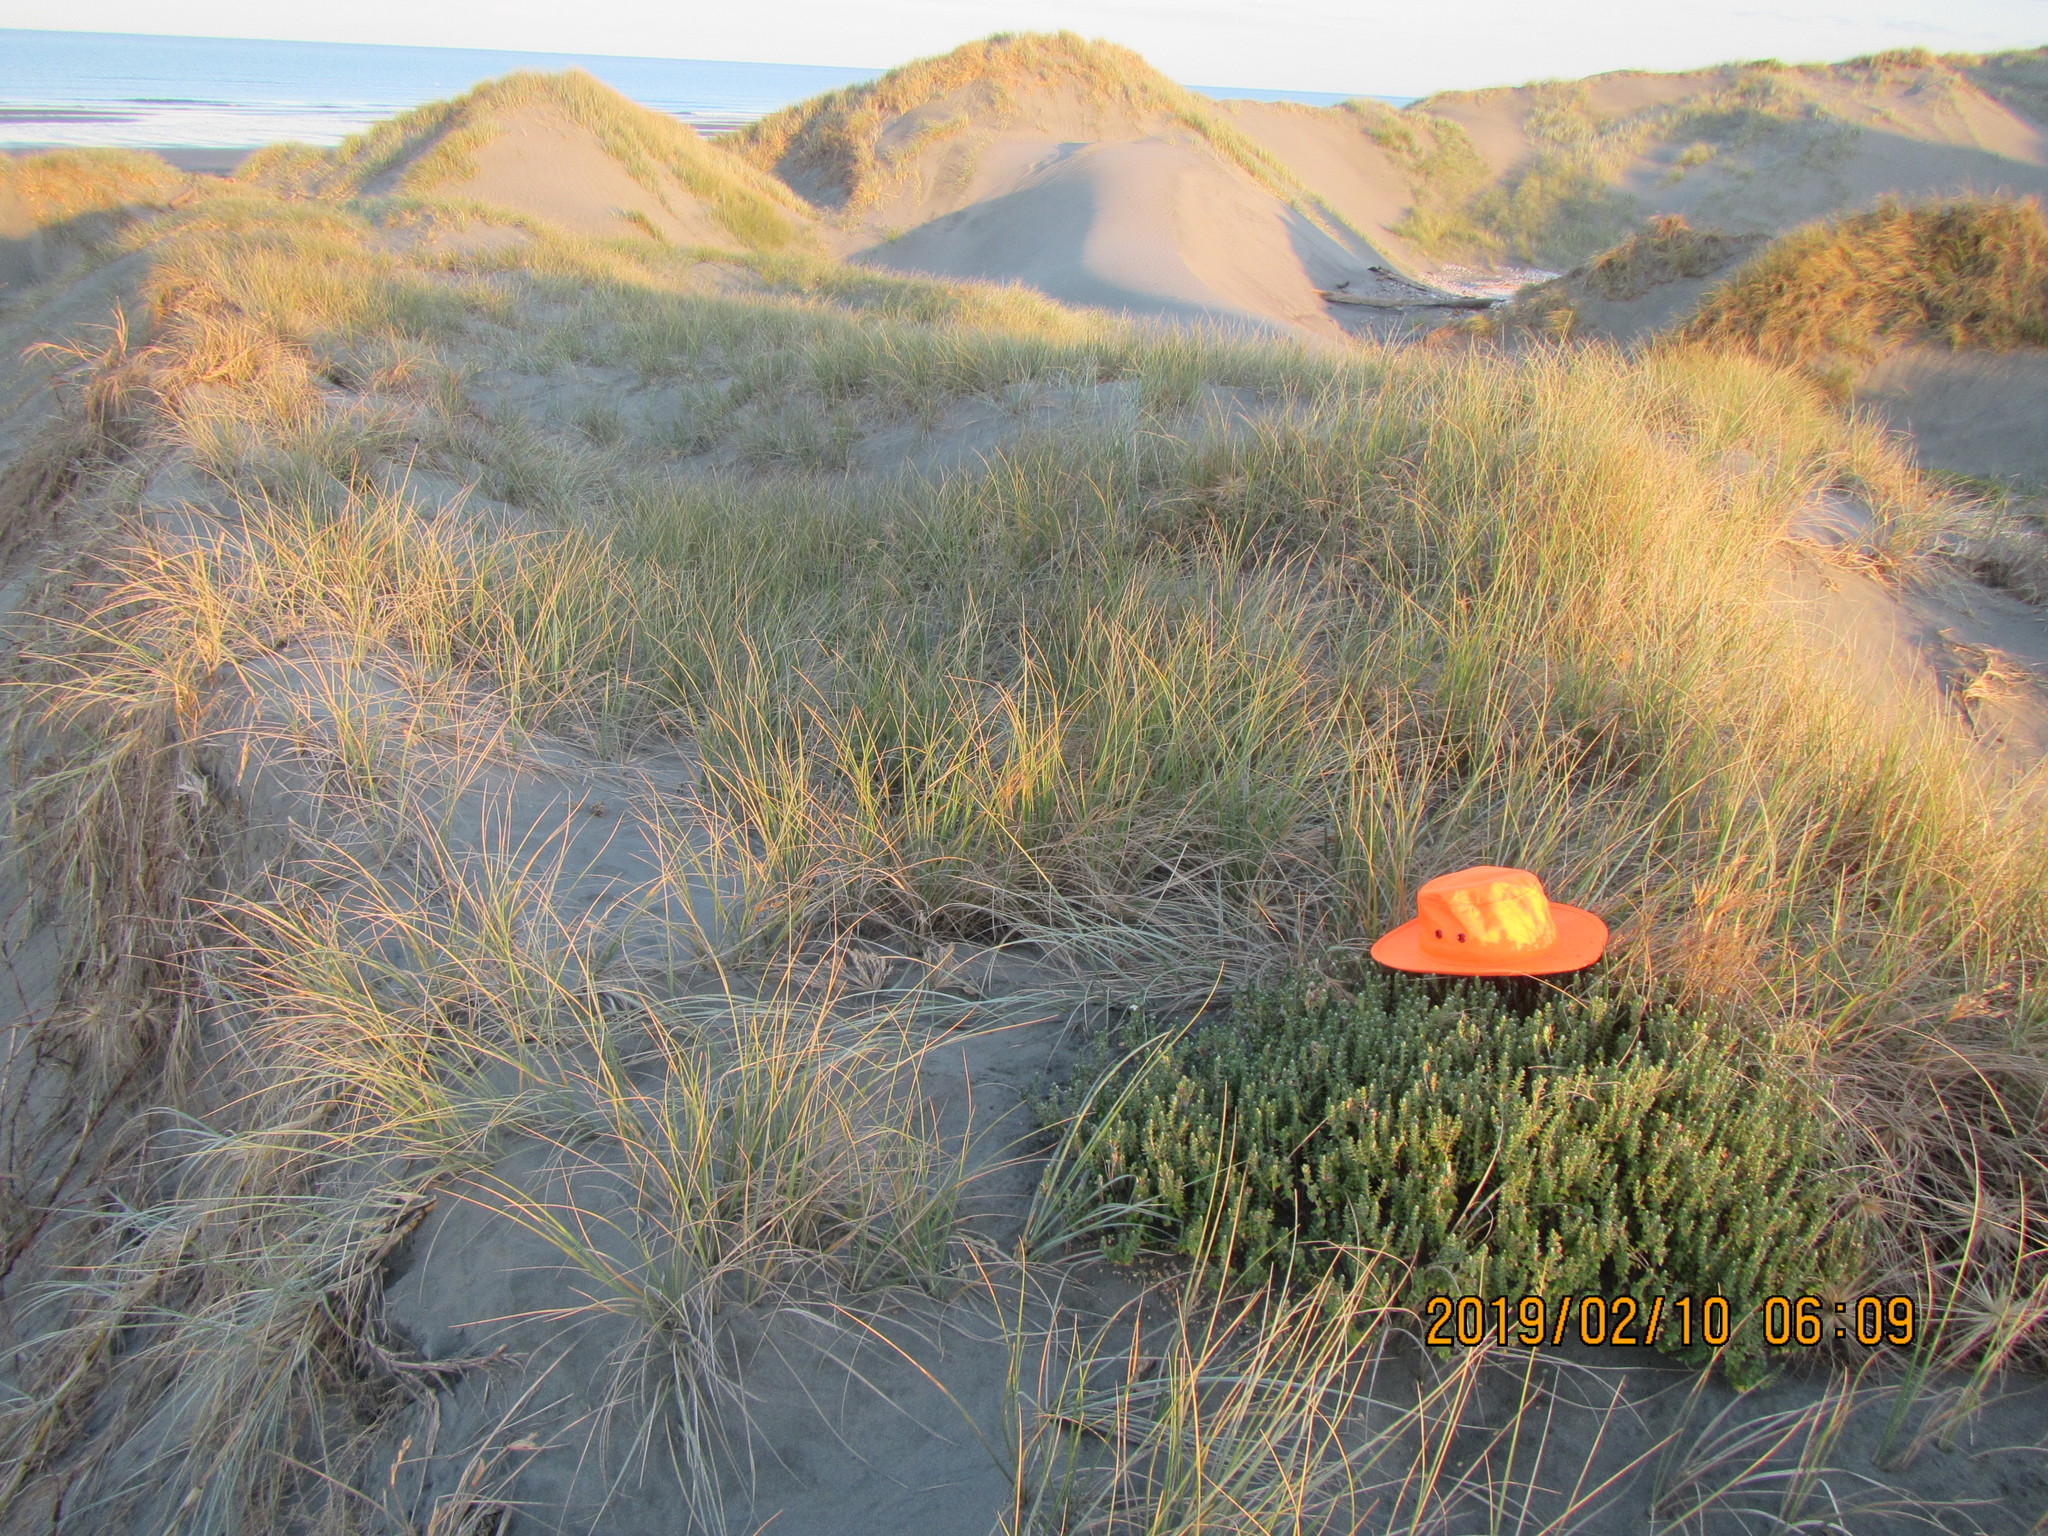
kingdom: Plantae
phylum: Tracheophyta
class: Magnoliopsida
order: Malvales
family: Thymelaeaceae
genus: Pimelea
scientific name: Pimelea villosa
